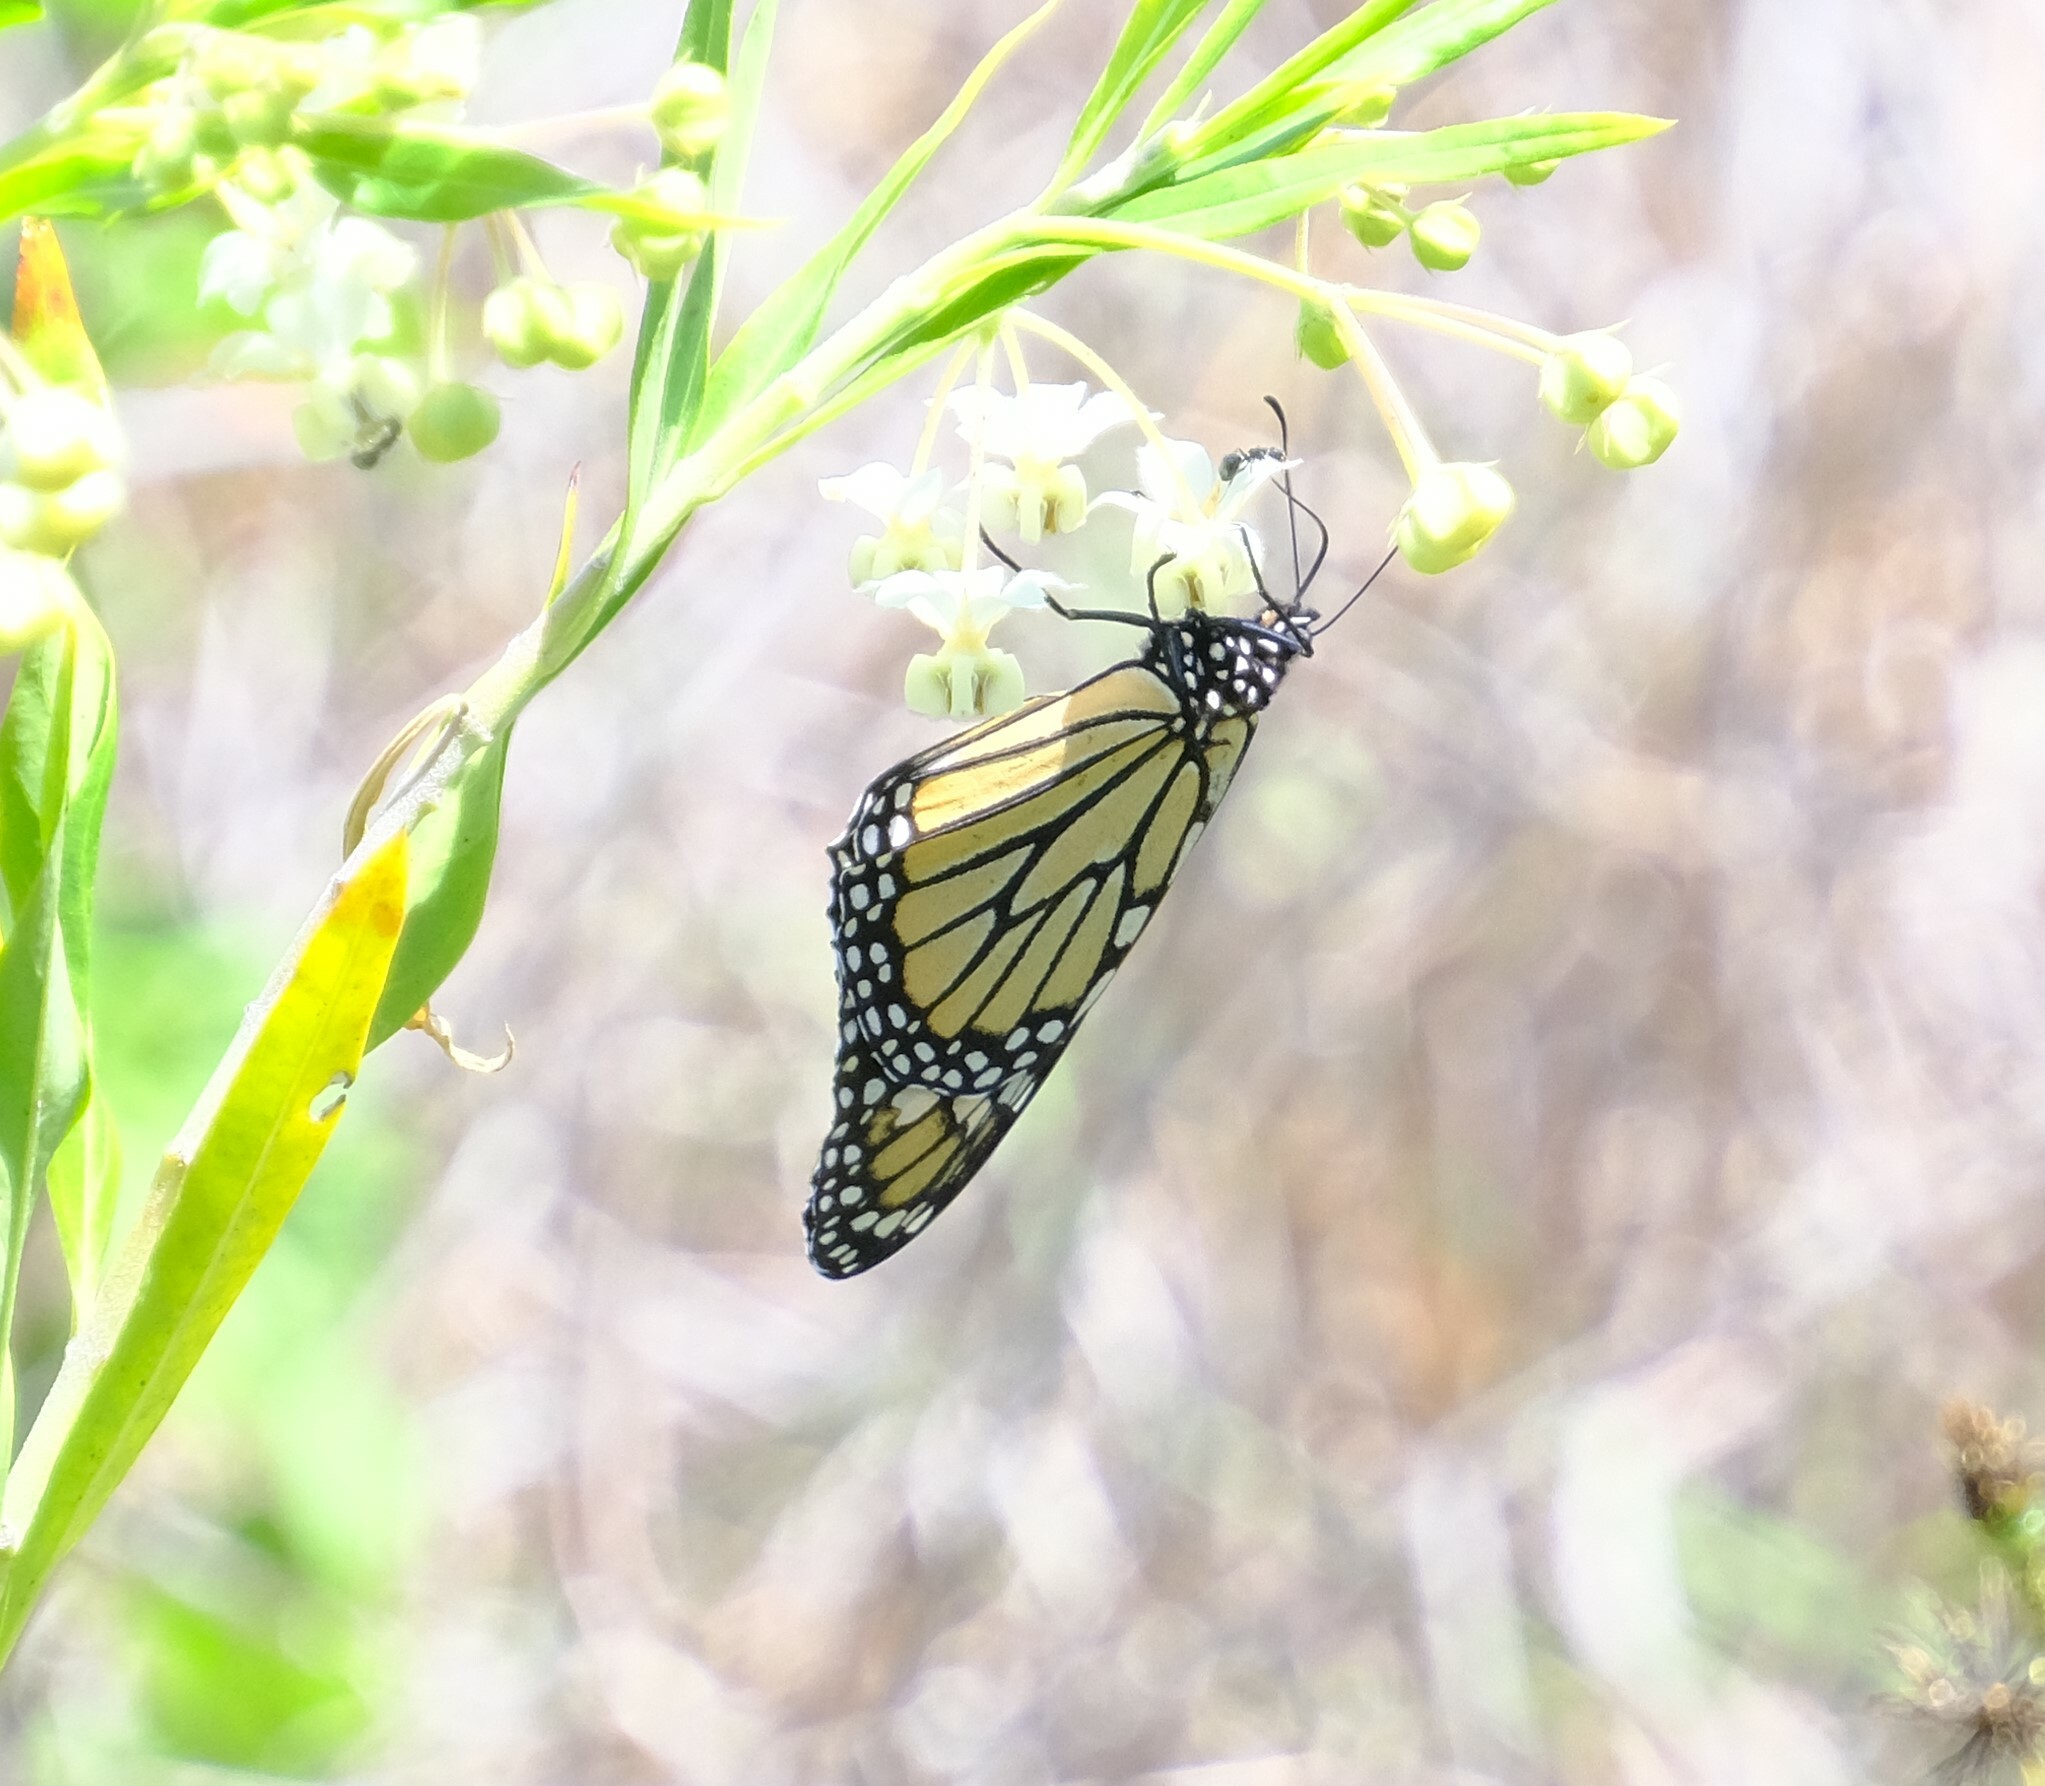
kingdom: Animalia
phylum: Arthropoda
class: Insecta
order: Lepidoptera
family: Nymphalidae
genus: Danaus
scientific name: Danaus plexippus
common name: Monarch
